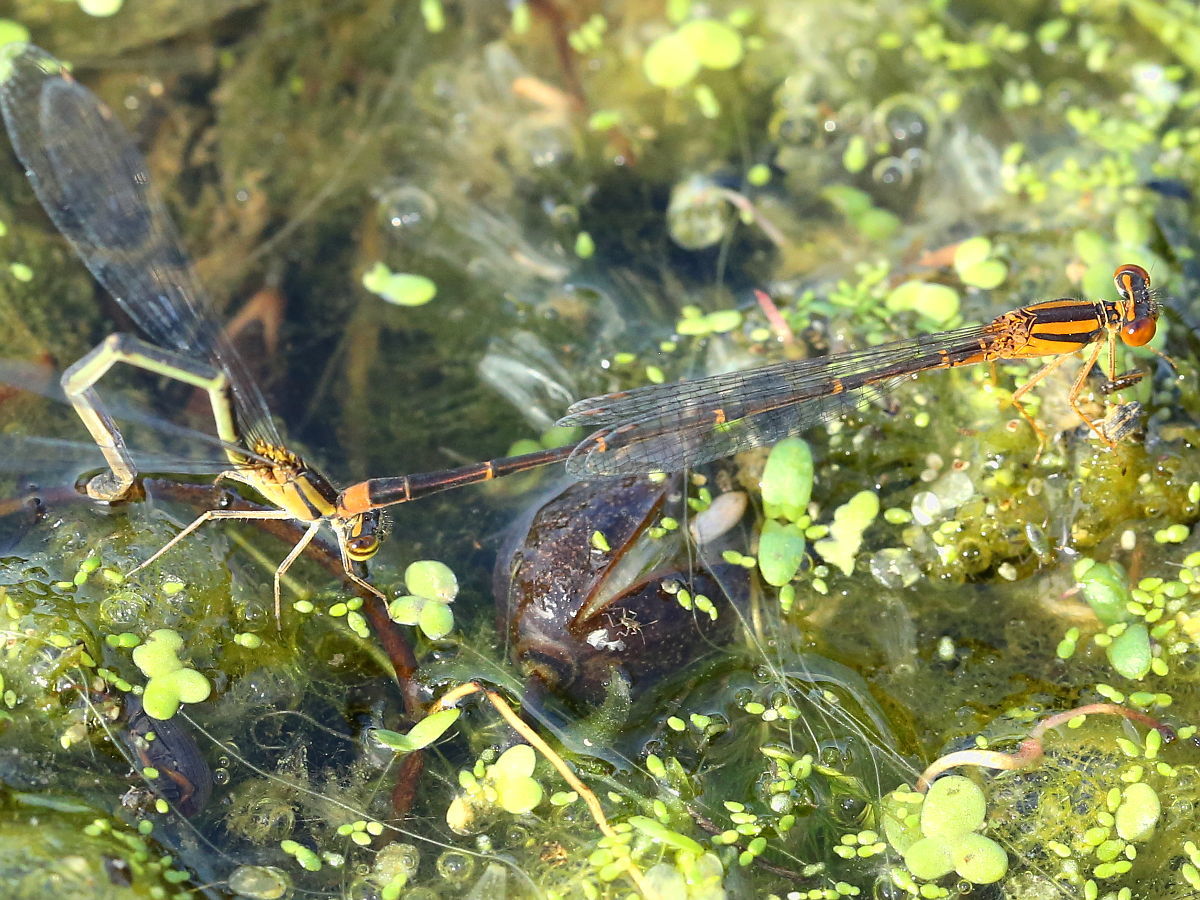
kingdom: Animalia
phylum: Arthropoda
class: Insecta
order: Odonata
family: Coenagrionidae
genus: Enallagma
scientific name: Enallagma signatum
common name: Orange bluet
